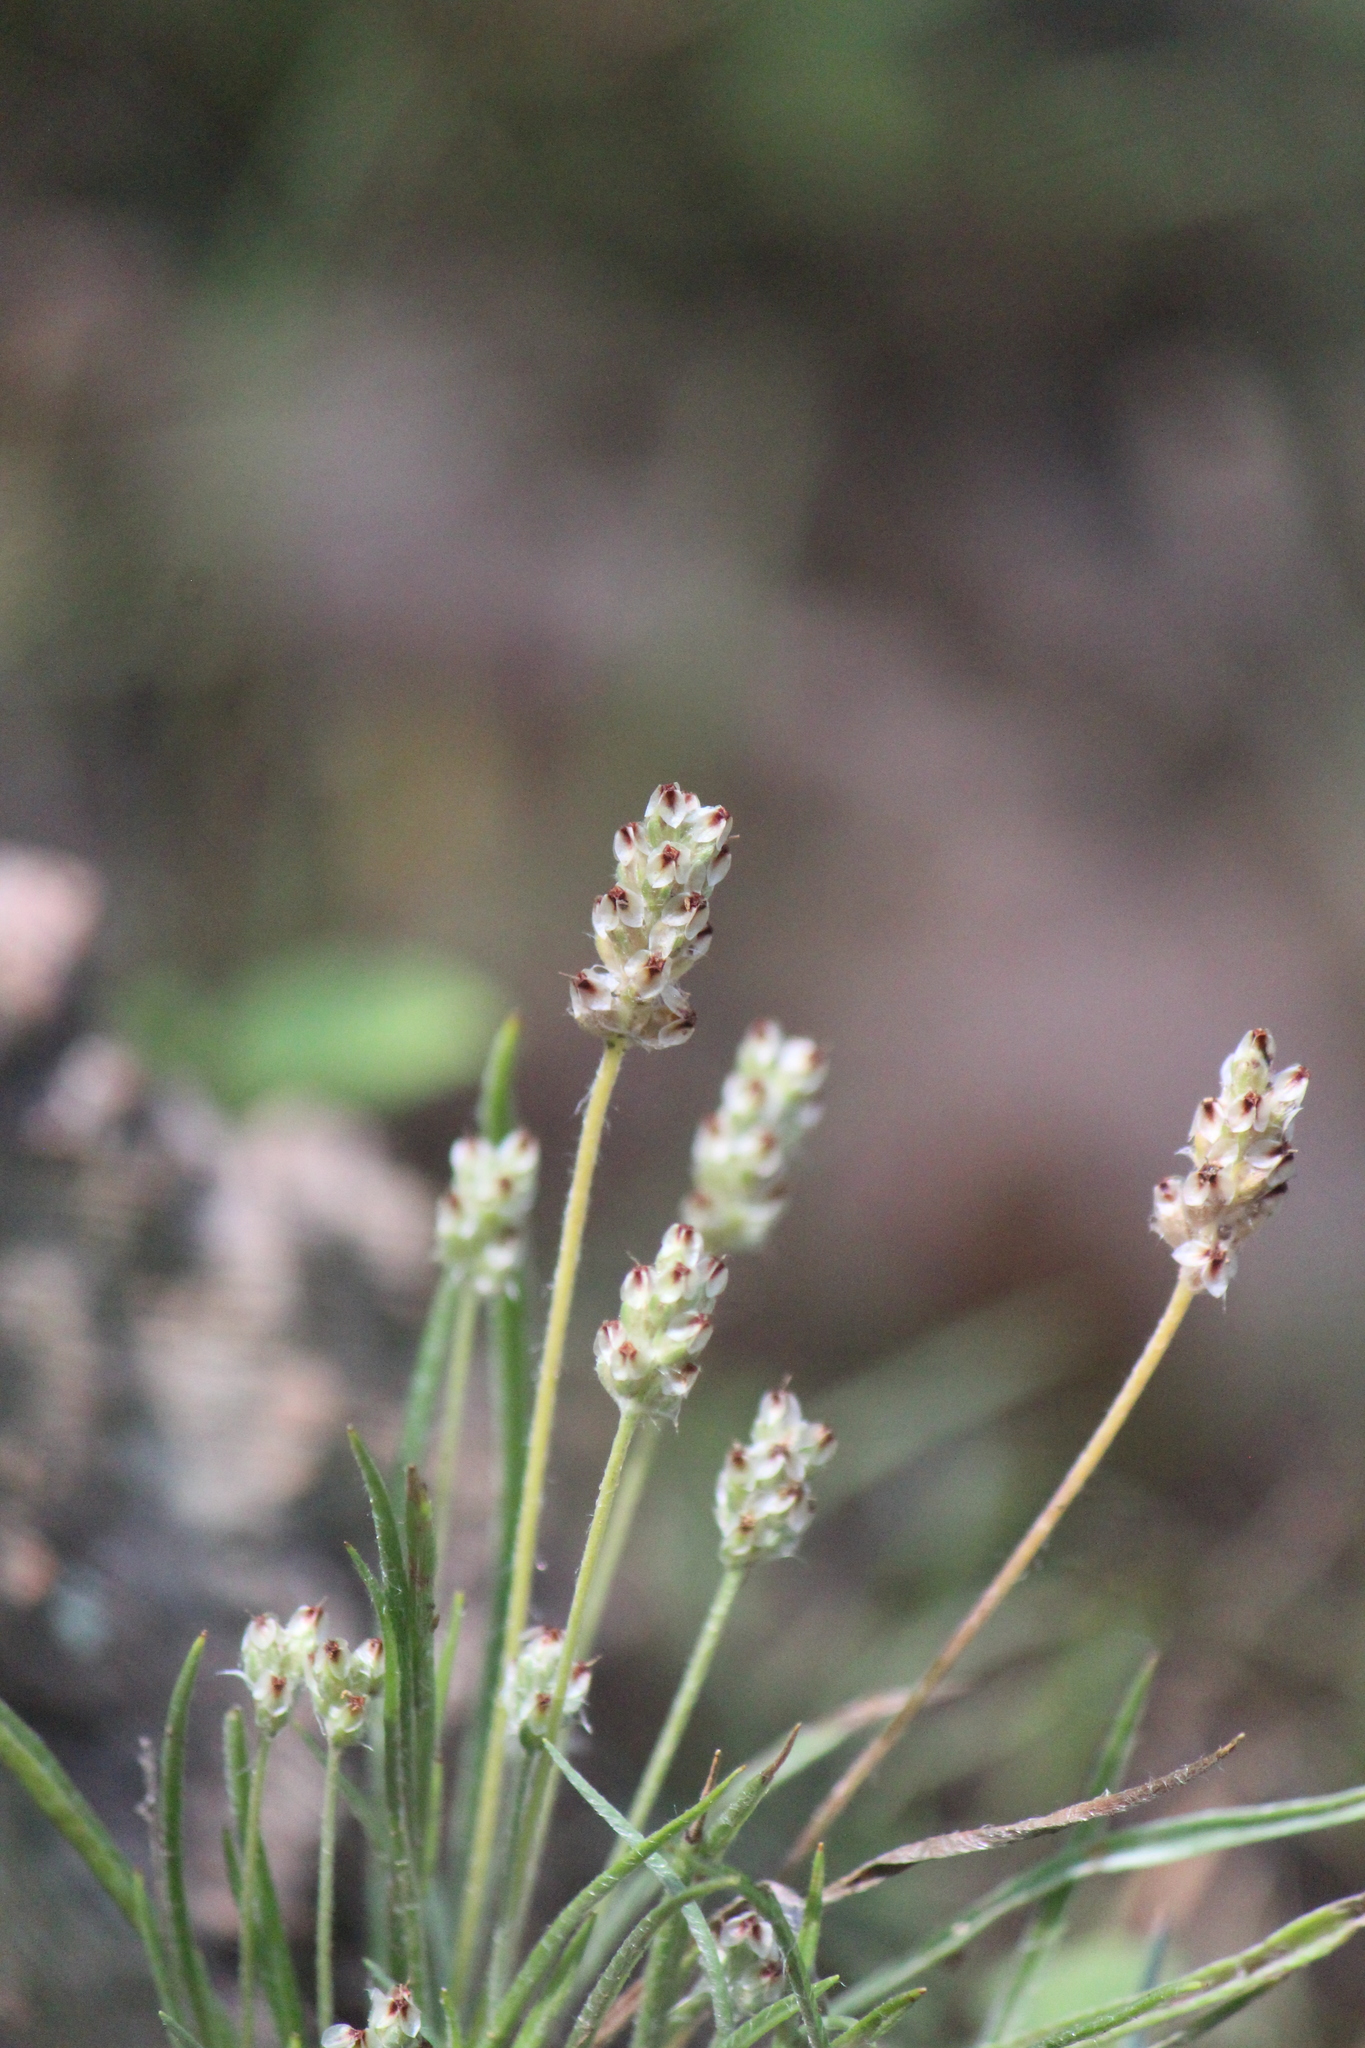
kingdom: Plantae
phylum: Tracheophyta
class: Magnoliopsida
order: Lamiales
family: Plantaginaceae
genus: Plantago
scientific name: Plantago nivea
